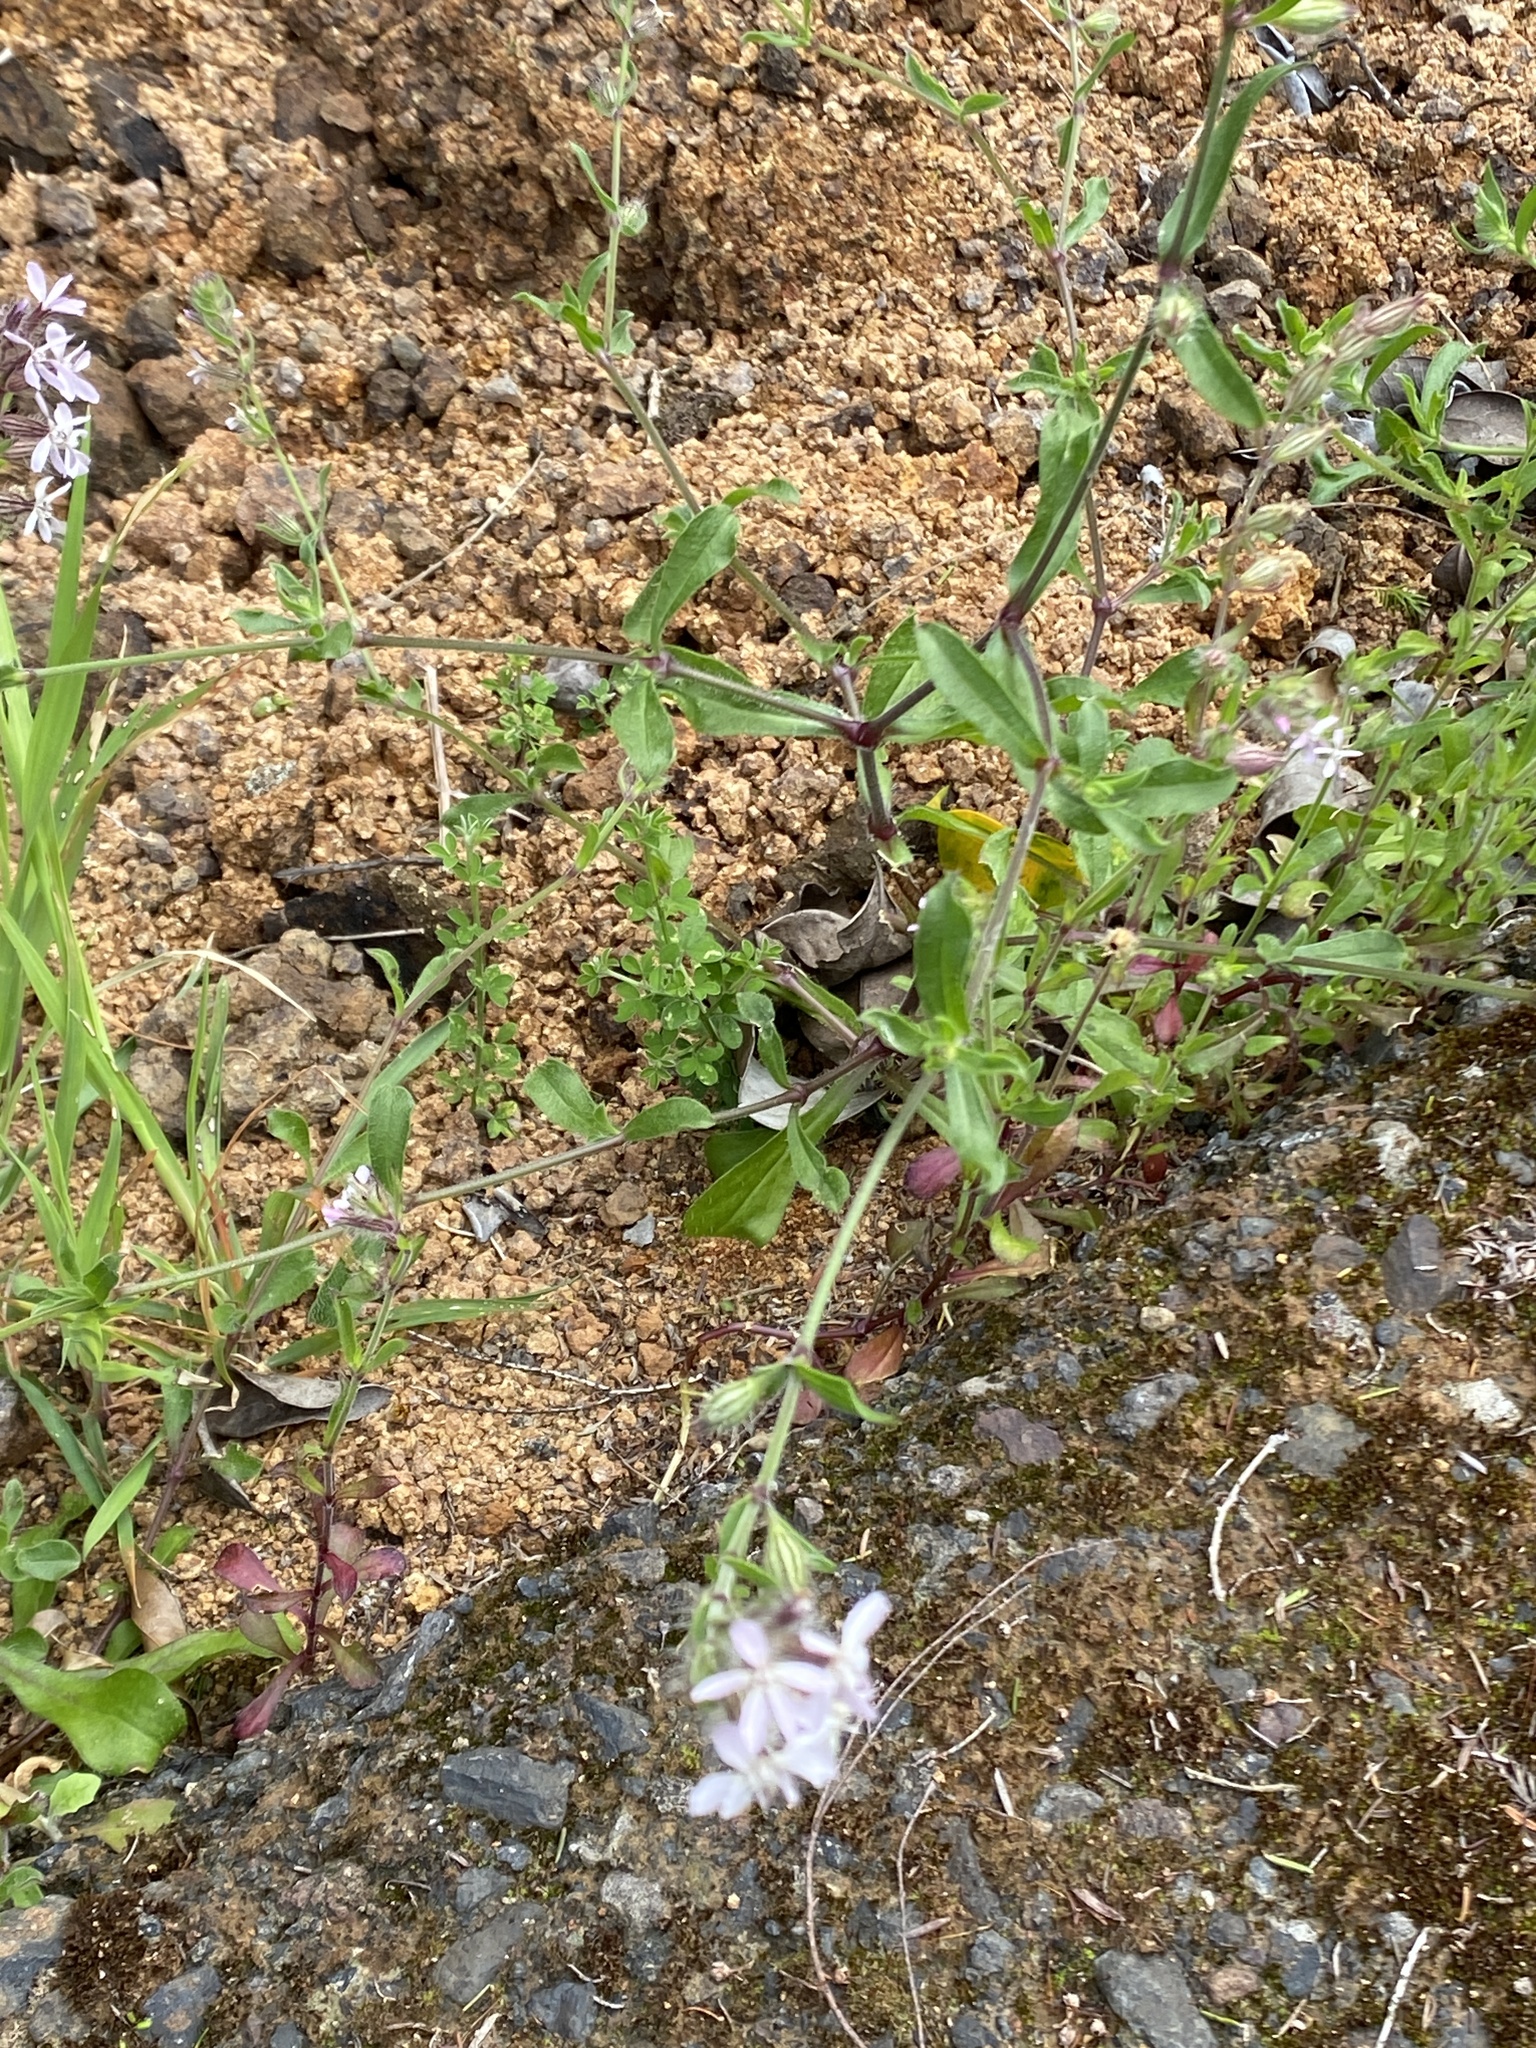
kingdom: Plantae
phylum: Tracheophyta
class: Magnoliopsida
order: Caryophyllales
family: Caryophyllaceae
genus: Silene
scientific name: Silene gallica
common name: Small-flowered catchfly
